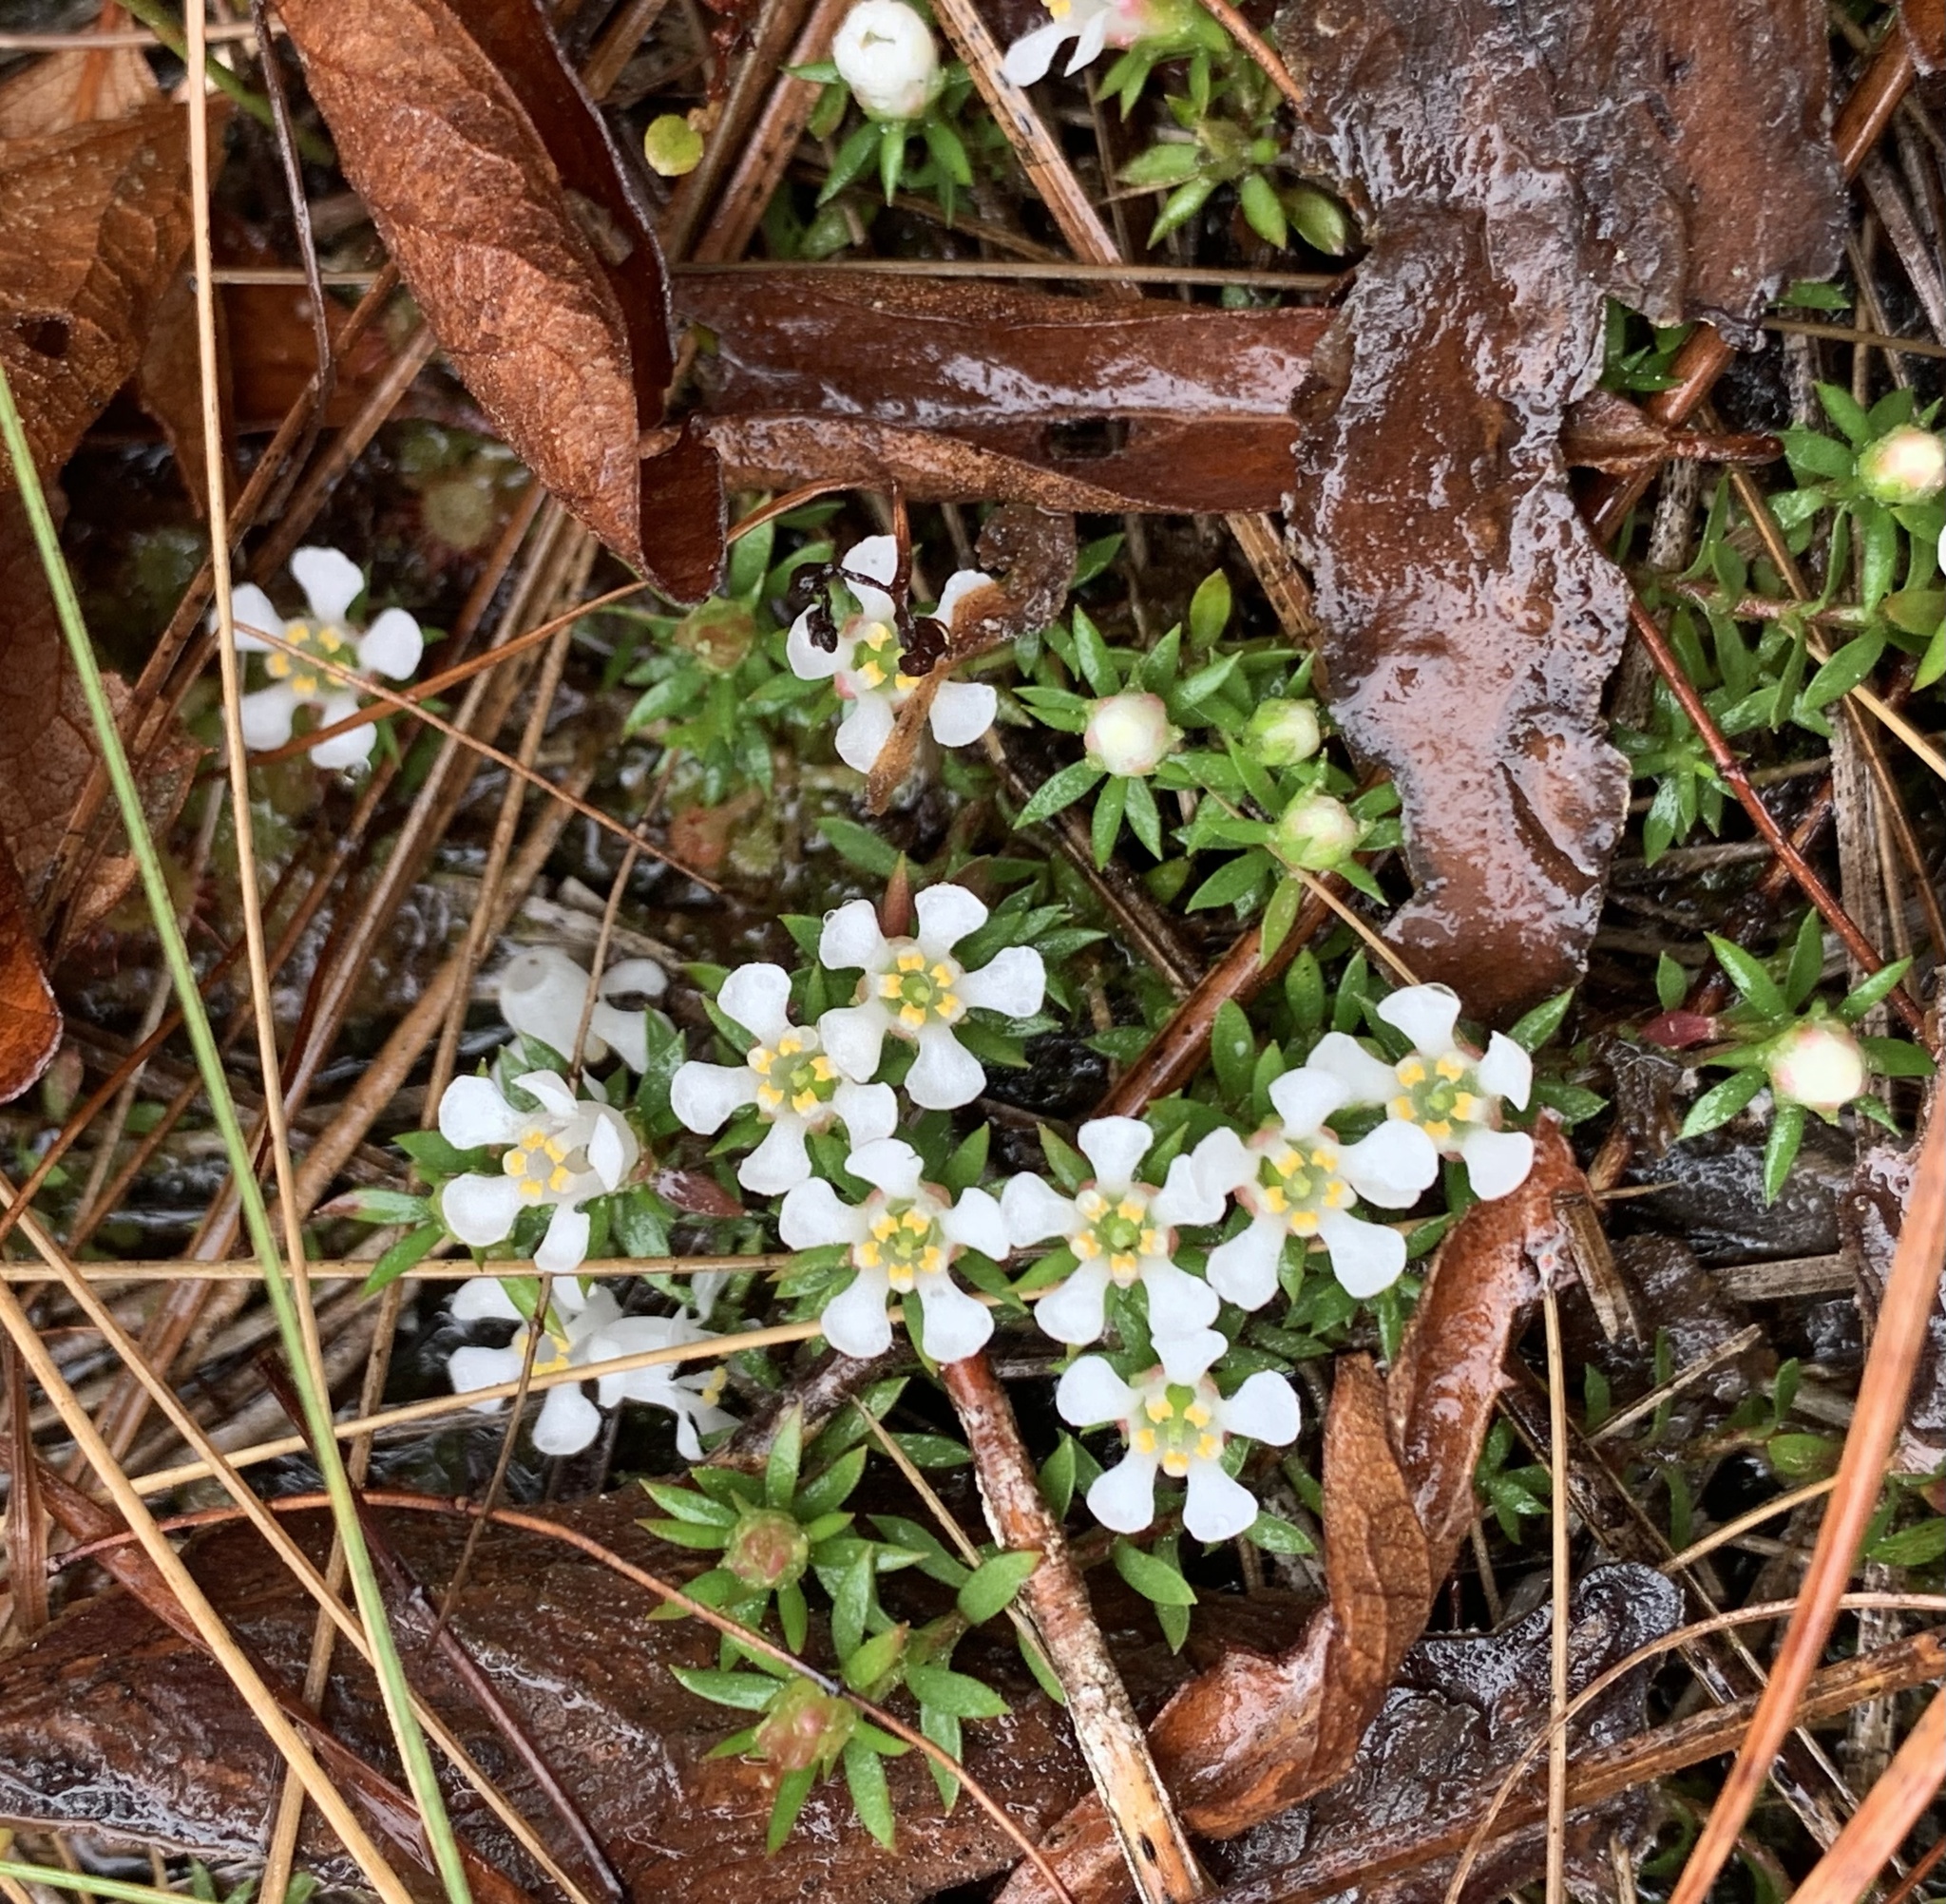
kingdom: Plantae
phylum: Tracheophyta
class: Magnoliopsida
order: Ericales
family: Diapensiaceae
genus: Pyxidanthera
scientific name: Pyxidanthera barbulata
